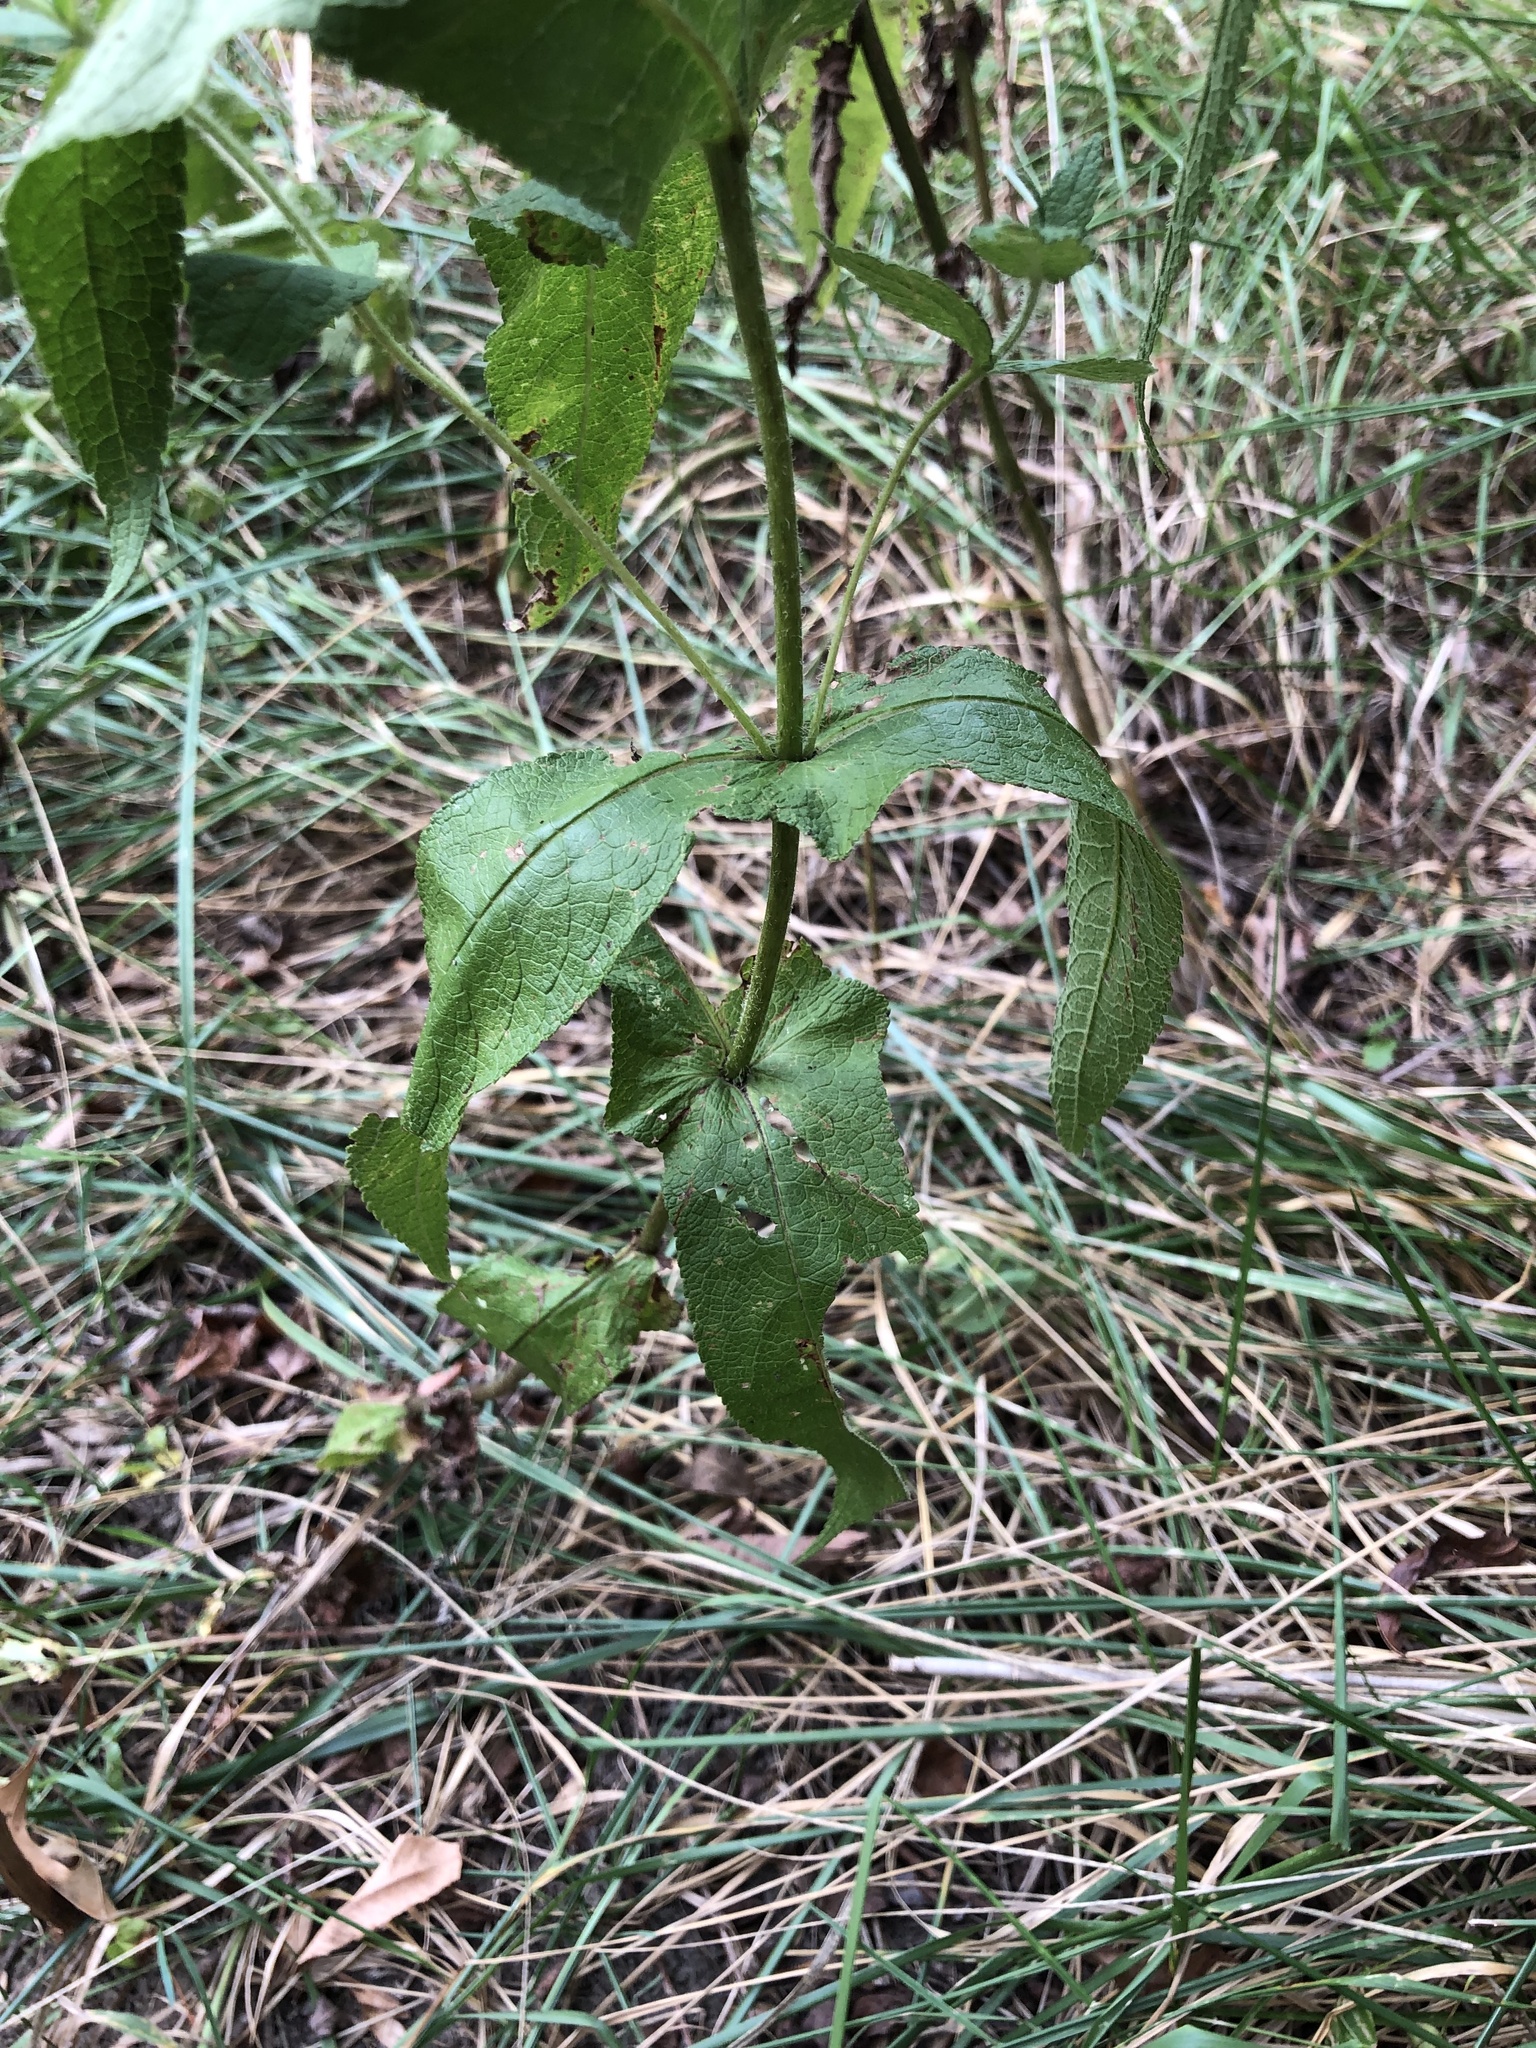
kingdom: Plantae
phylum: Tracheophyta
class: Magnoliopsida
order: Asterales
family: Asteraceae
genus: Eupatorium
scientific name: Eupatorium perfoliatum
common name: Boneset
